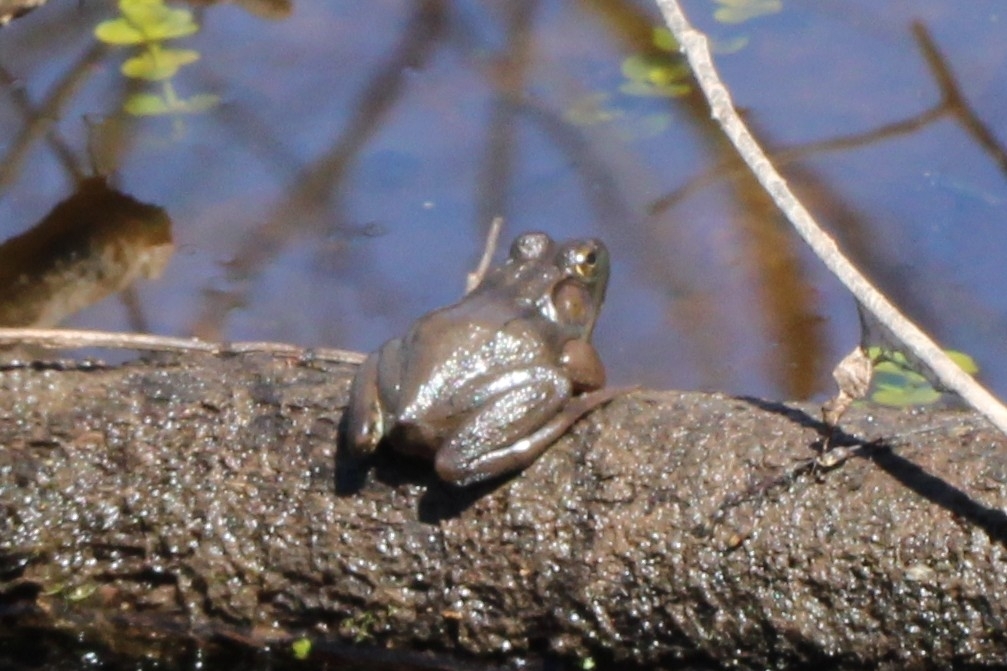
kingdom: Animalia
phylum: Chordata
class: Amphibia
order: Anura
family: Ranidae
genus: Lithobates
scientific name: Lithobates catesbeianus
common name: American bullfrog
